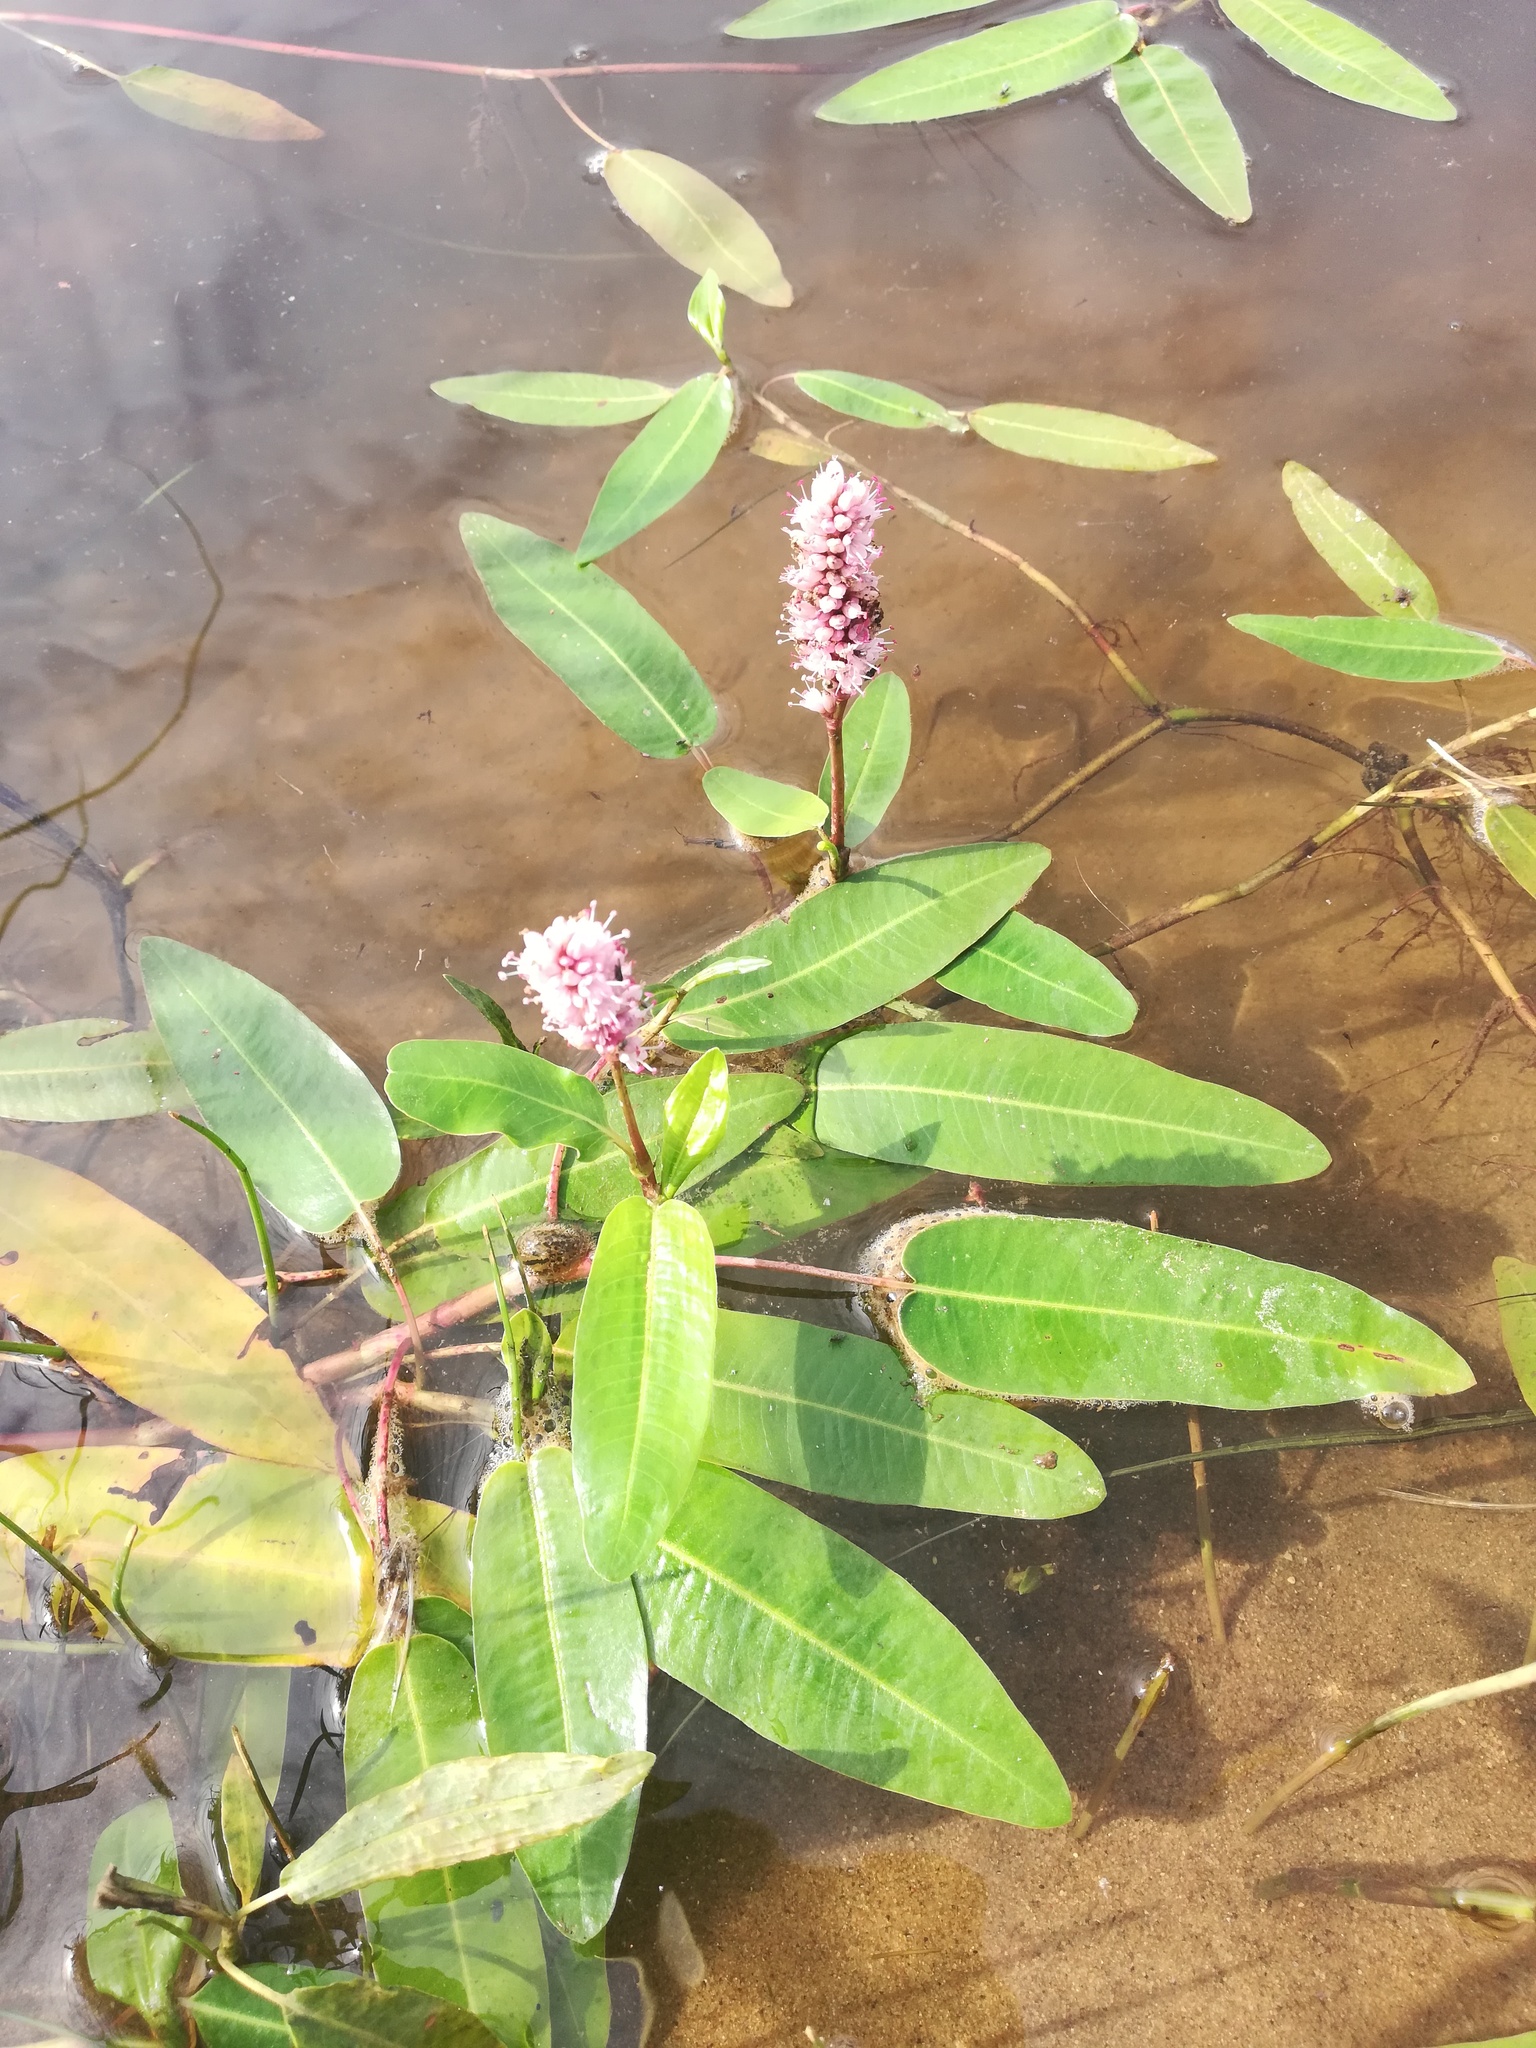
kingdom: Plantae
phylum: Tracheophyta
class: Magnoliopsida
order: Caryophyllales
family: Polygonaceae
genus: Persicaria
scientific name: Persicaria amphibia
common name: Amphibious bistort
